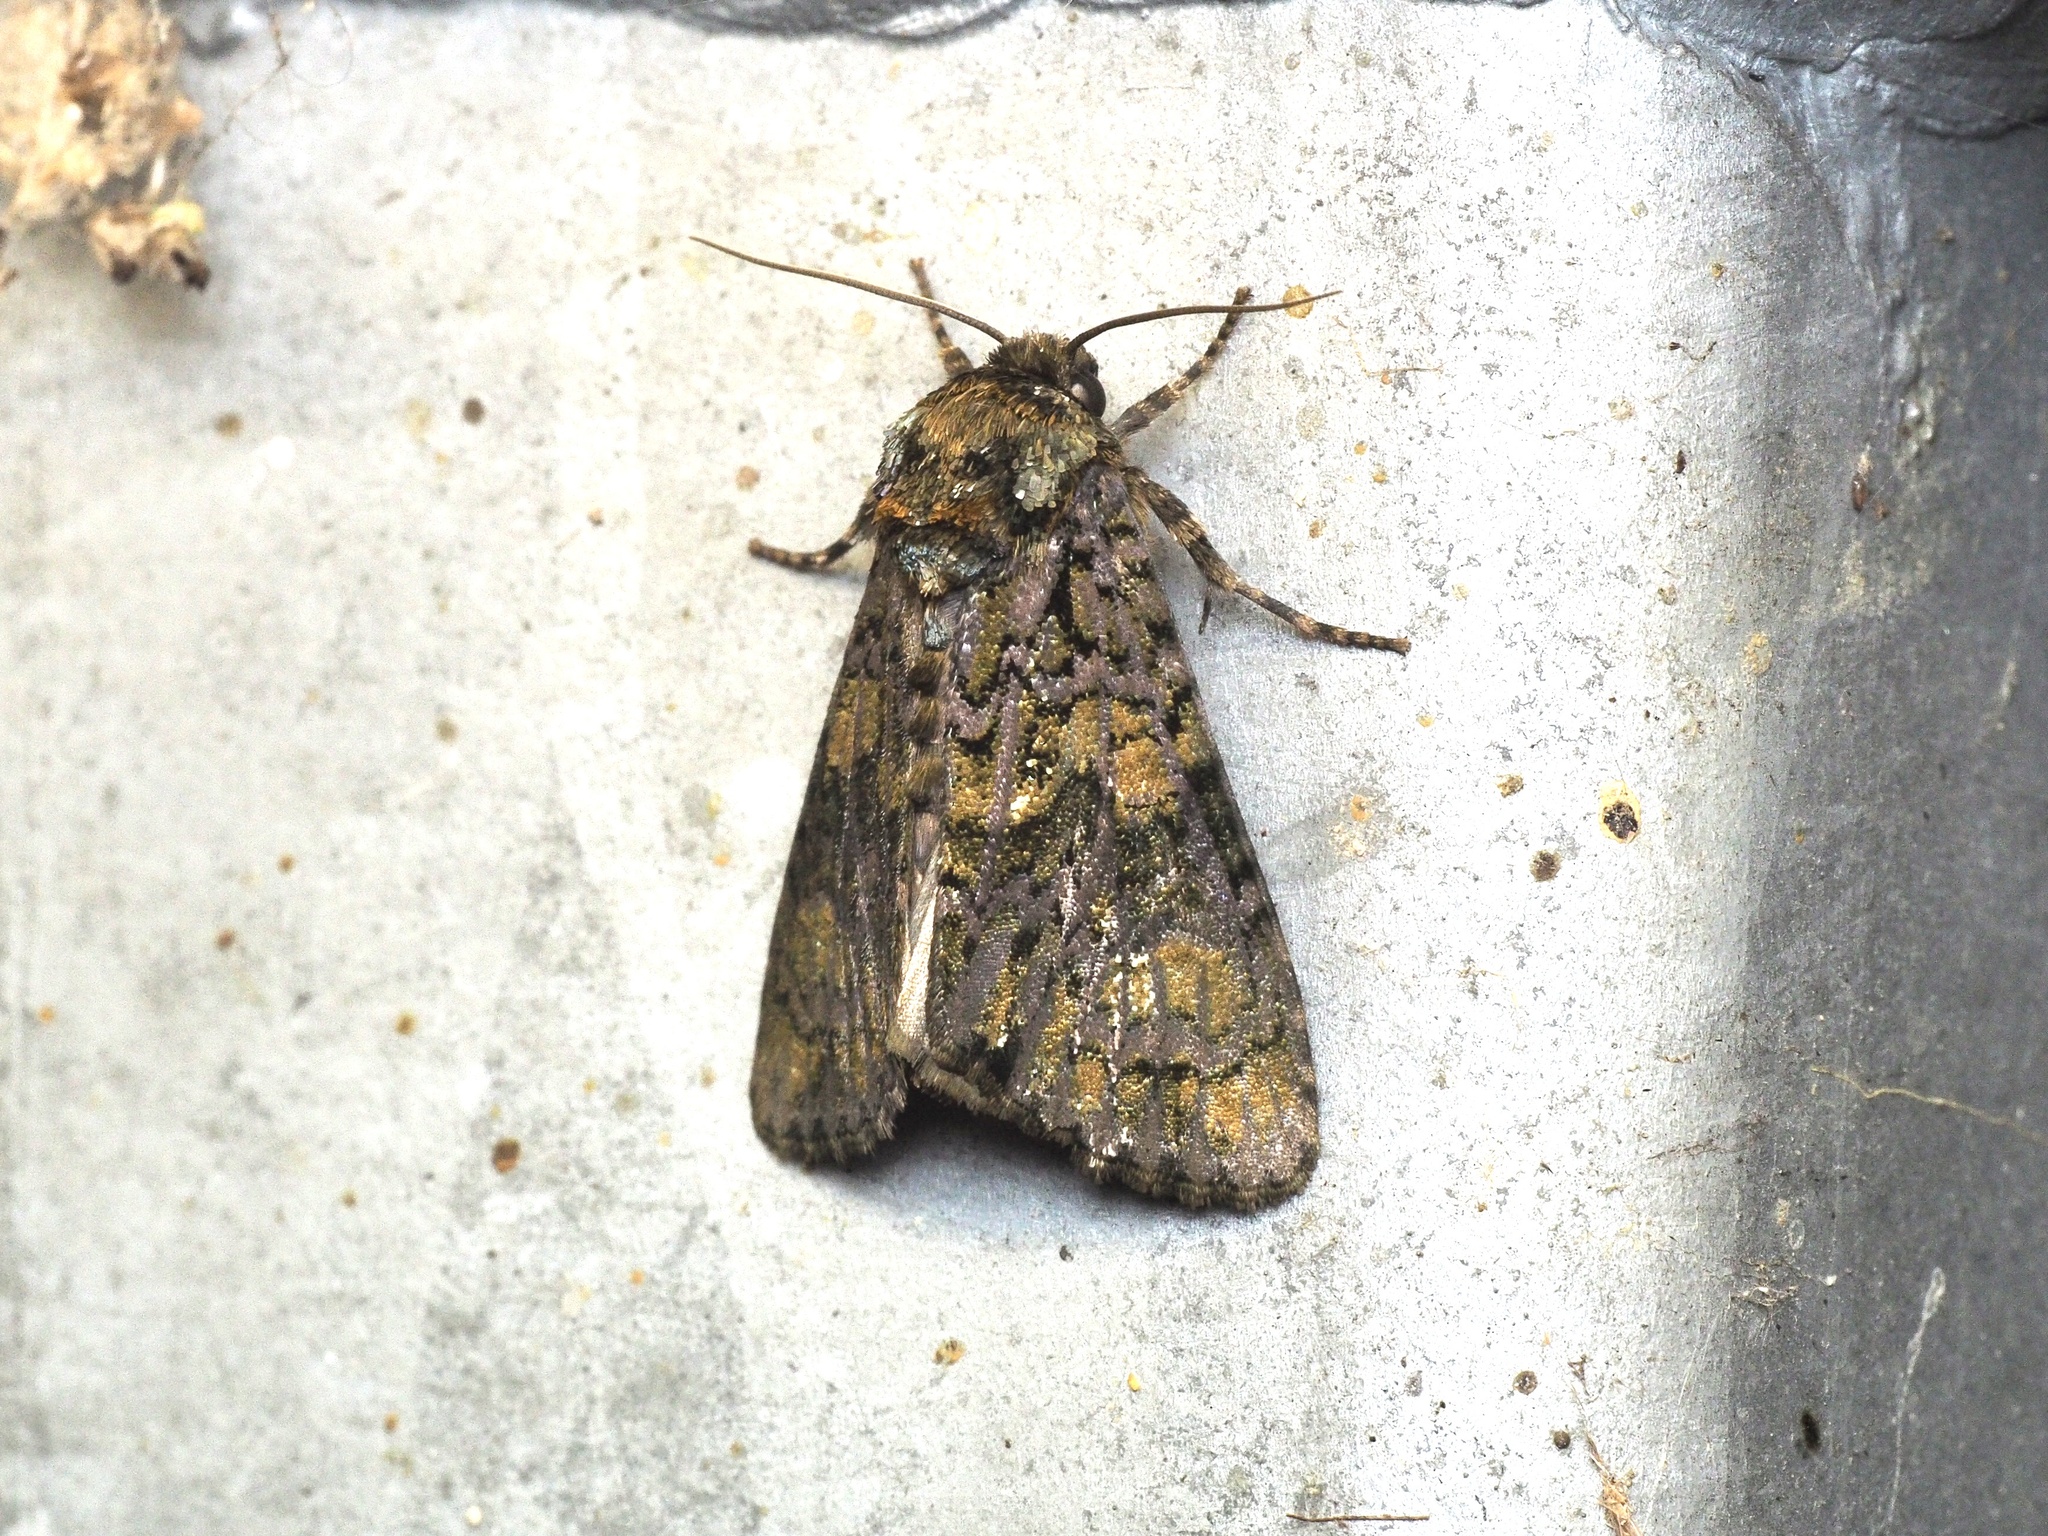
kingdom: Animalia
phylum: Arthropoda
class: Insecta
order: Lepidoptera
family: Noctuidae
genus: Craniophora
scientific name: Craniophora ligustri
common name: Coronet
